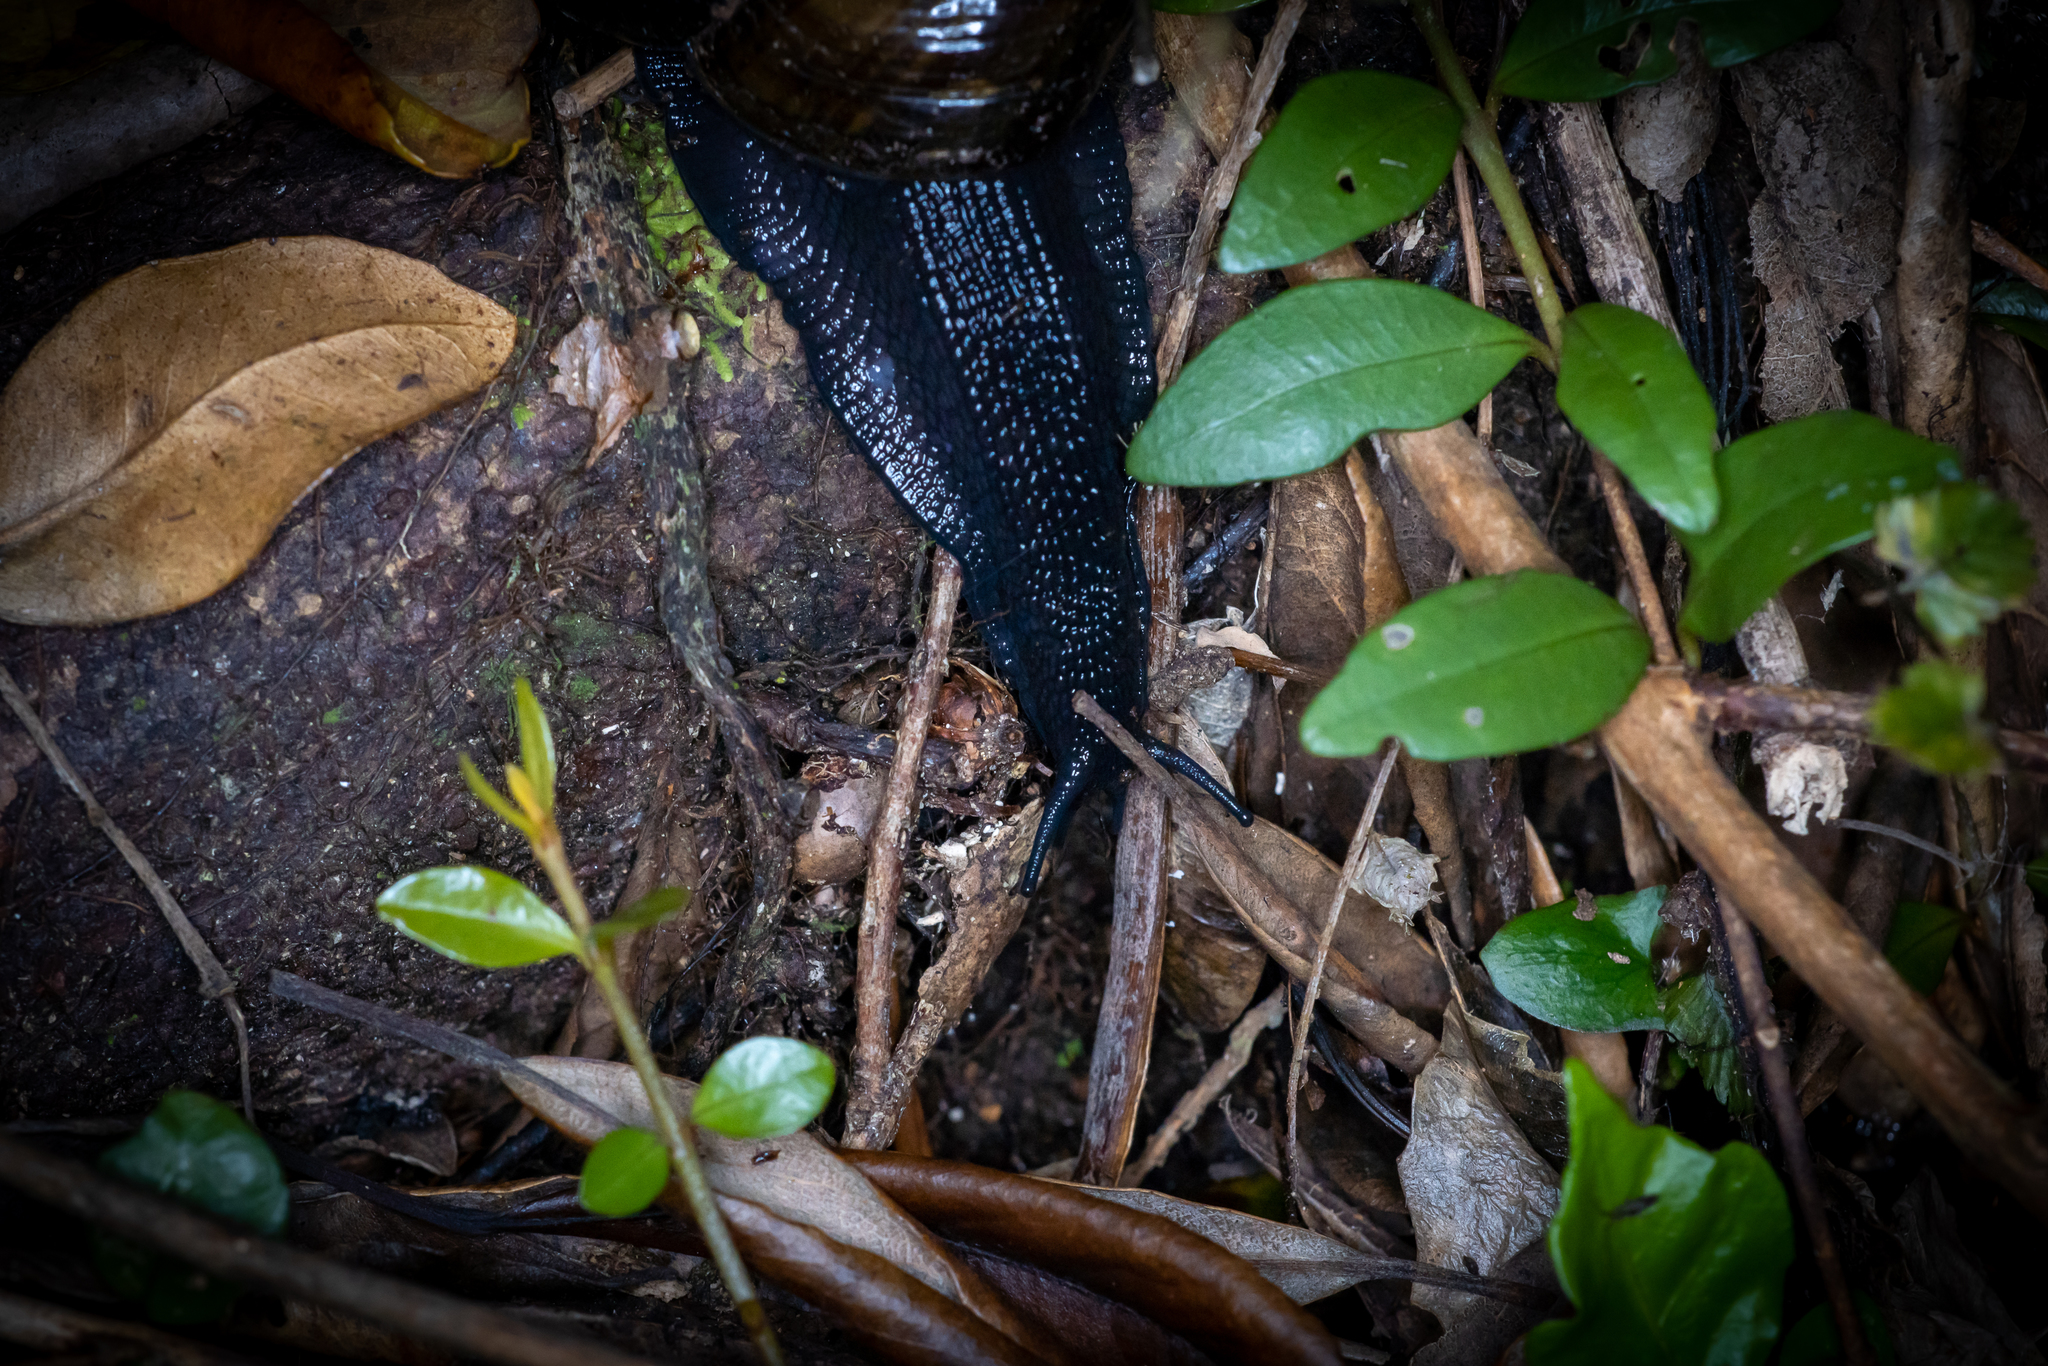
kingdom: Animalia
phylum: Mollusca
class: Gastropoda
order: Stylommatophora
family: Rhytididae
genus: Powelliphanta
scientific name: Powelliphanta traversi
